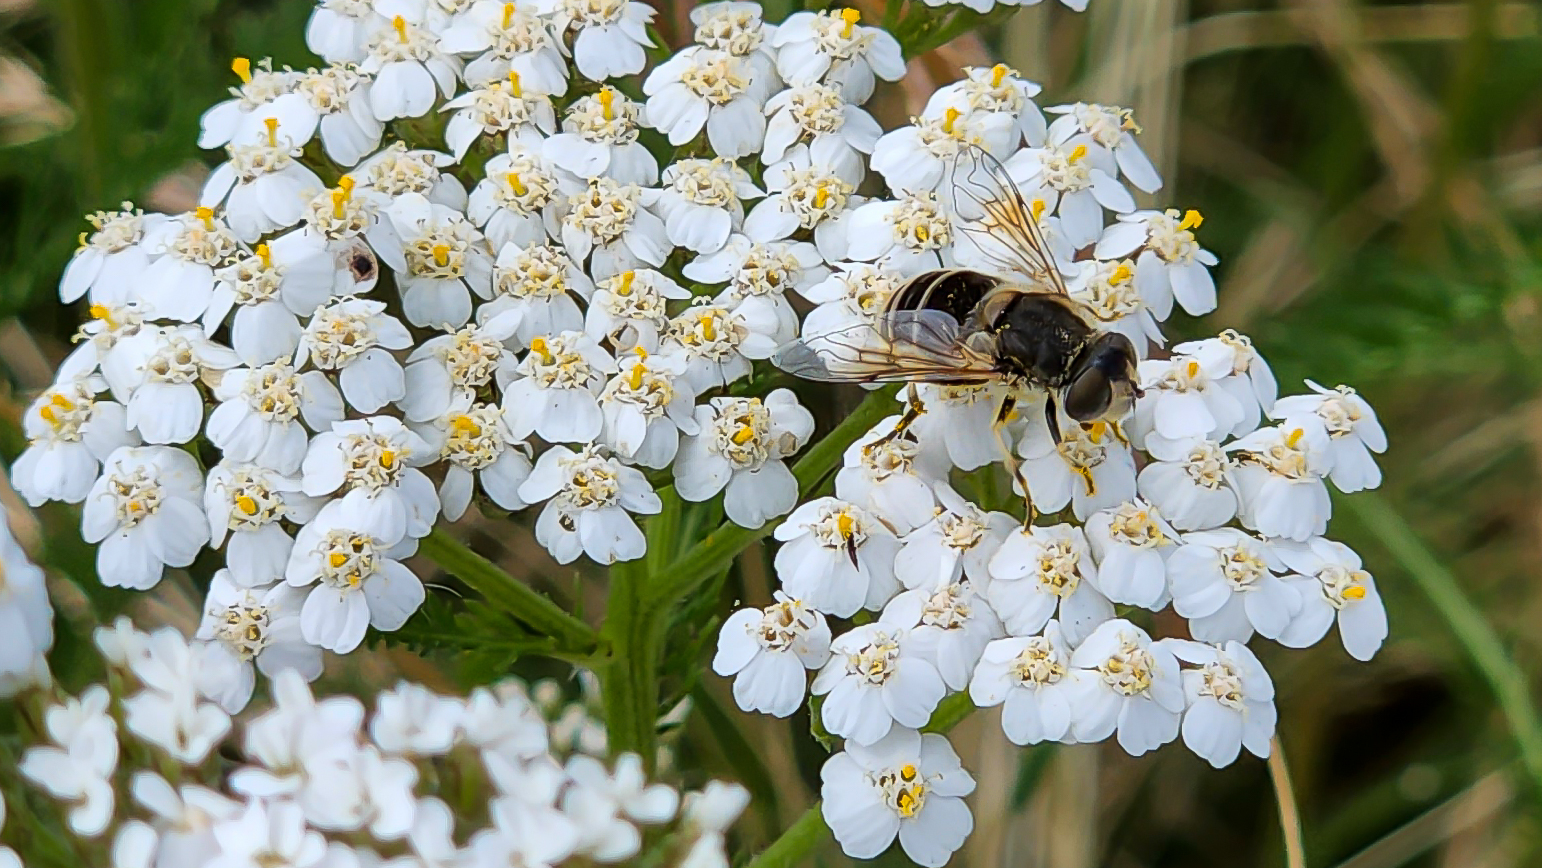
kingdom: Animalia
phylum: Arthropoda
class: Insecta
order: Diptera
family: Syrphidae
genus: Eristalis
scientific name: Eristalis arbustorum
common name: Hover fly
